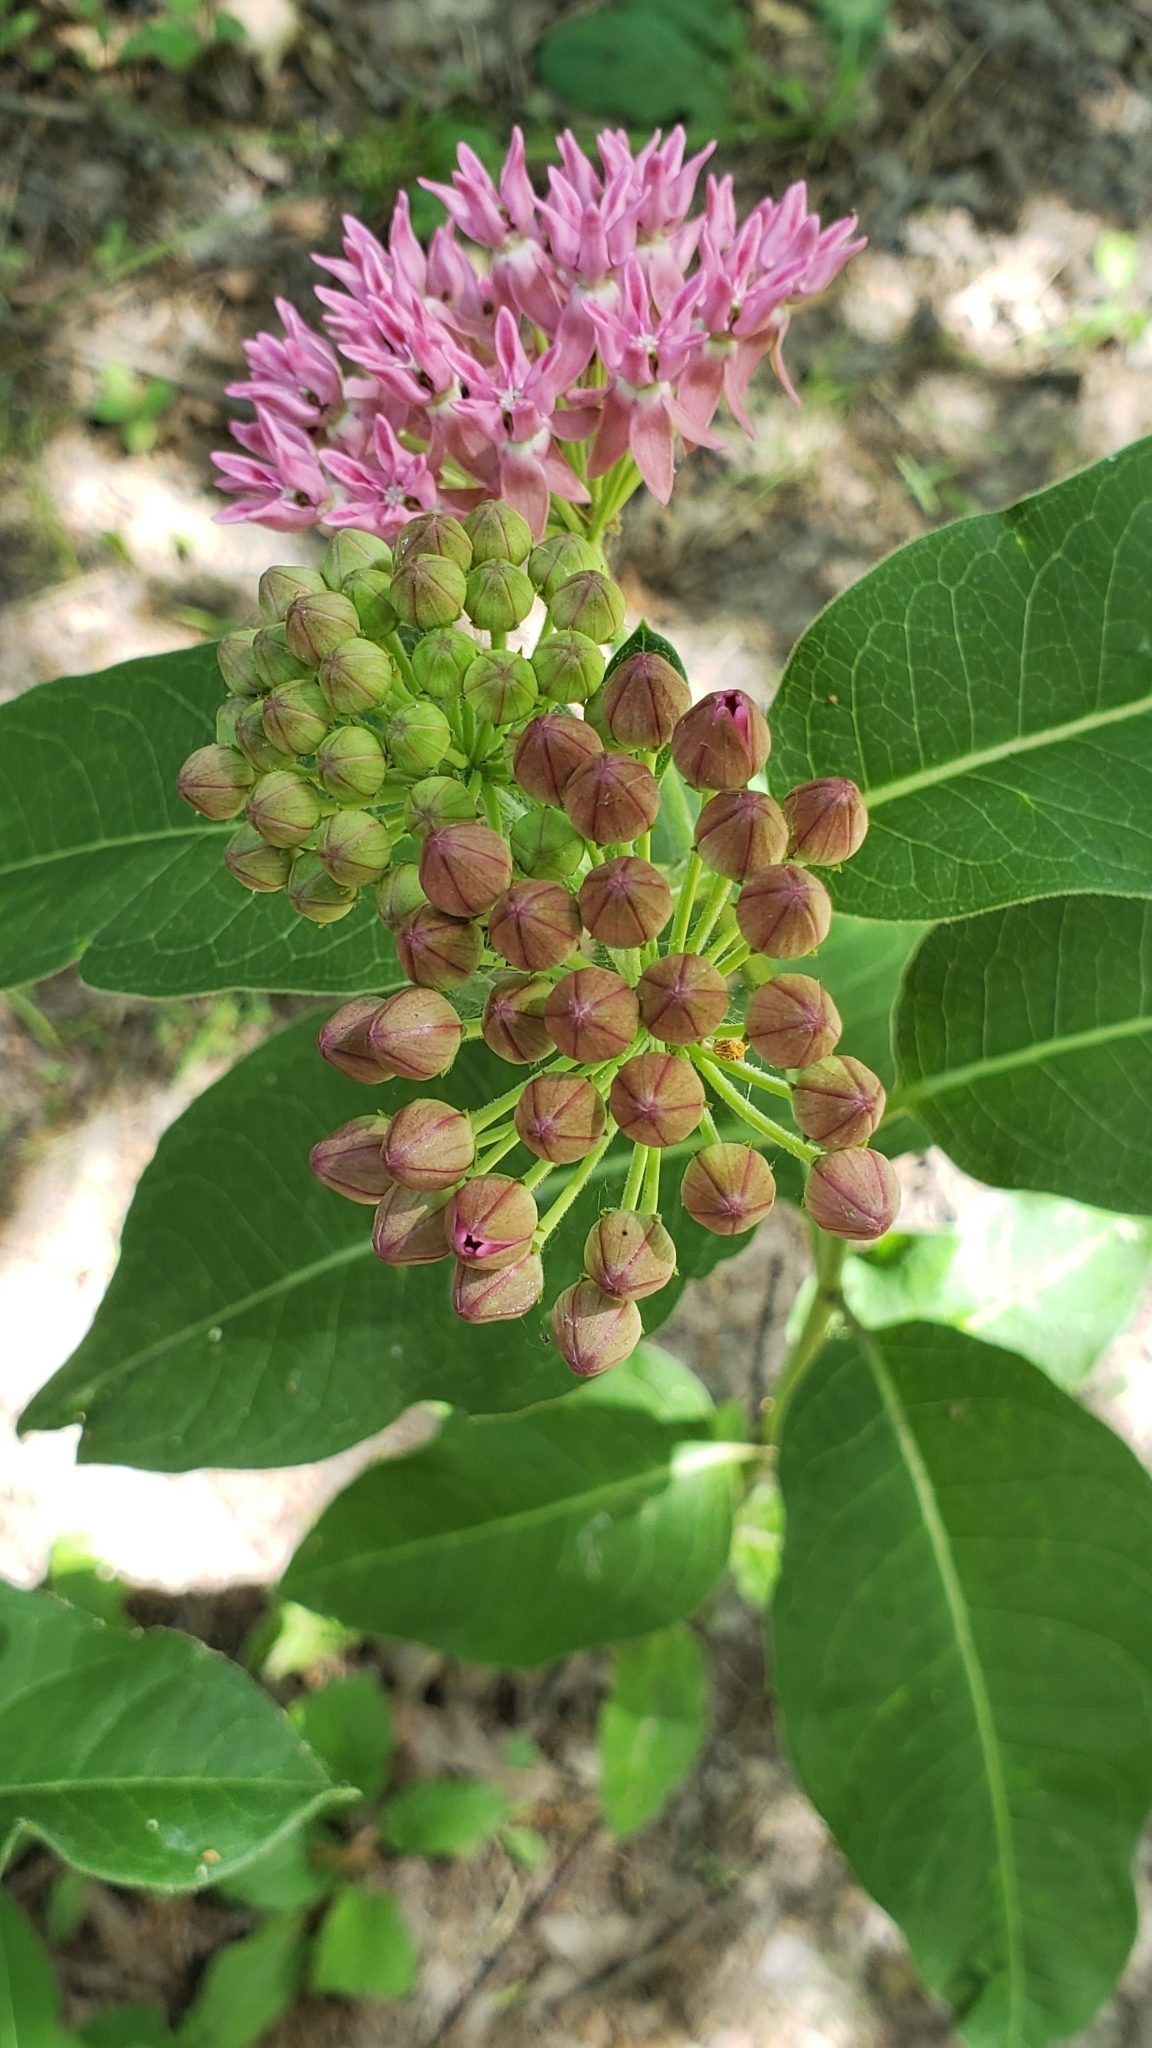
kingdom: Plantae
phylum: Tracheophyta
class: Magnoliopsida
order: Gentianales
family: Apocynaceae
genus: Asclepias
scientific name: Asclepias purpurascens
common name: Purple milkweed
